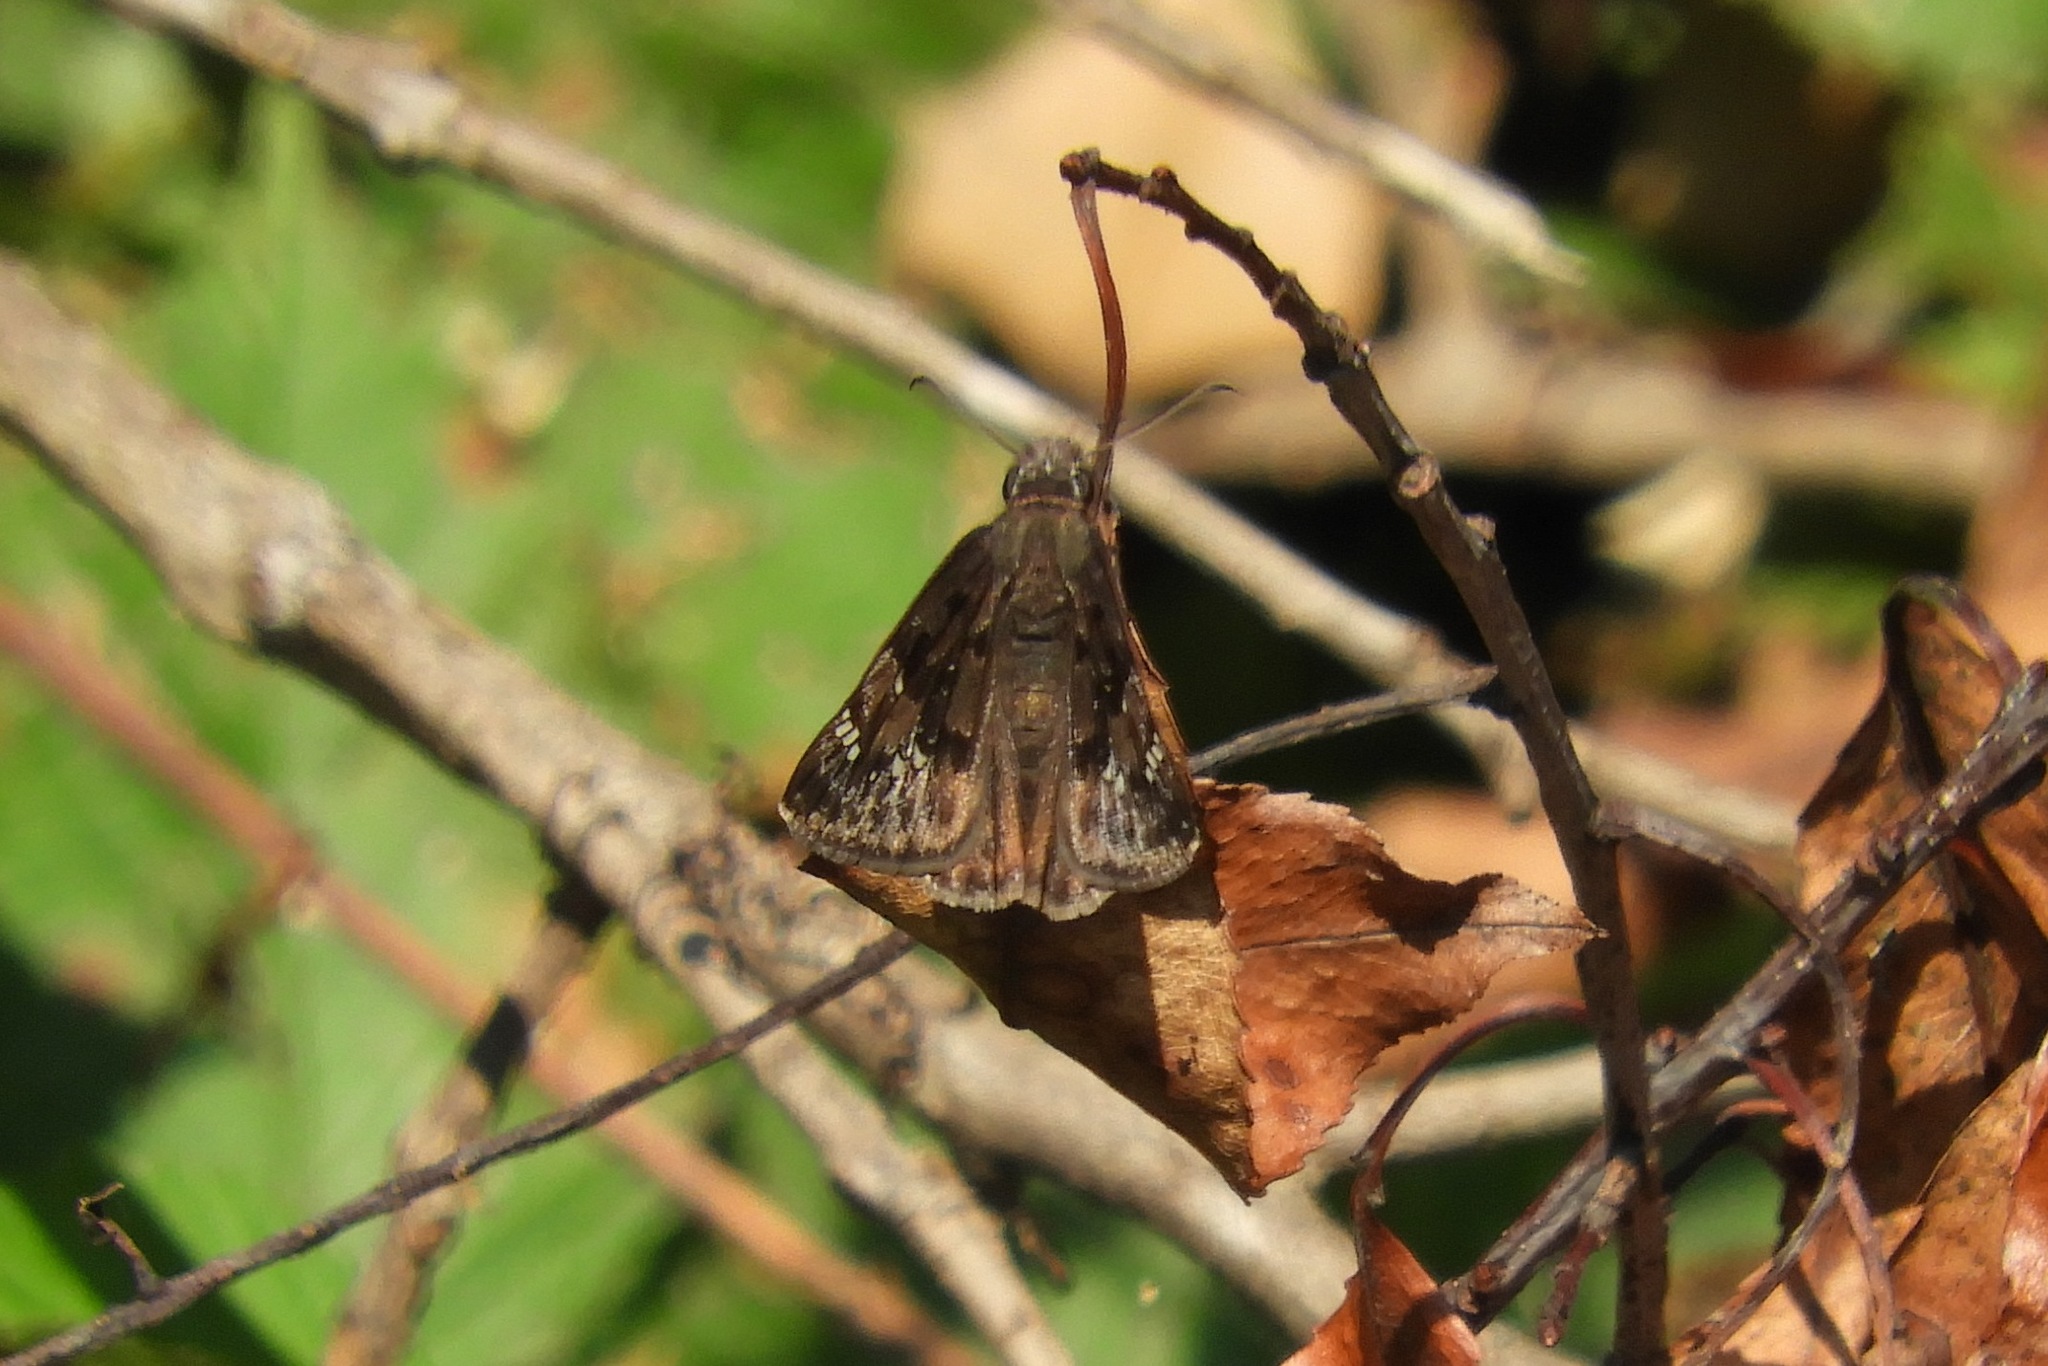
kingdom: Animalia
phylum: Arthropoda
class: Insecta
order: Lepidoptera
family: Hesperiidae
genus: Erynnis
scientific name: Erynnis
